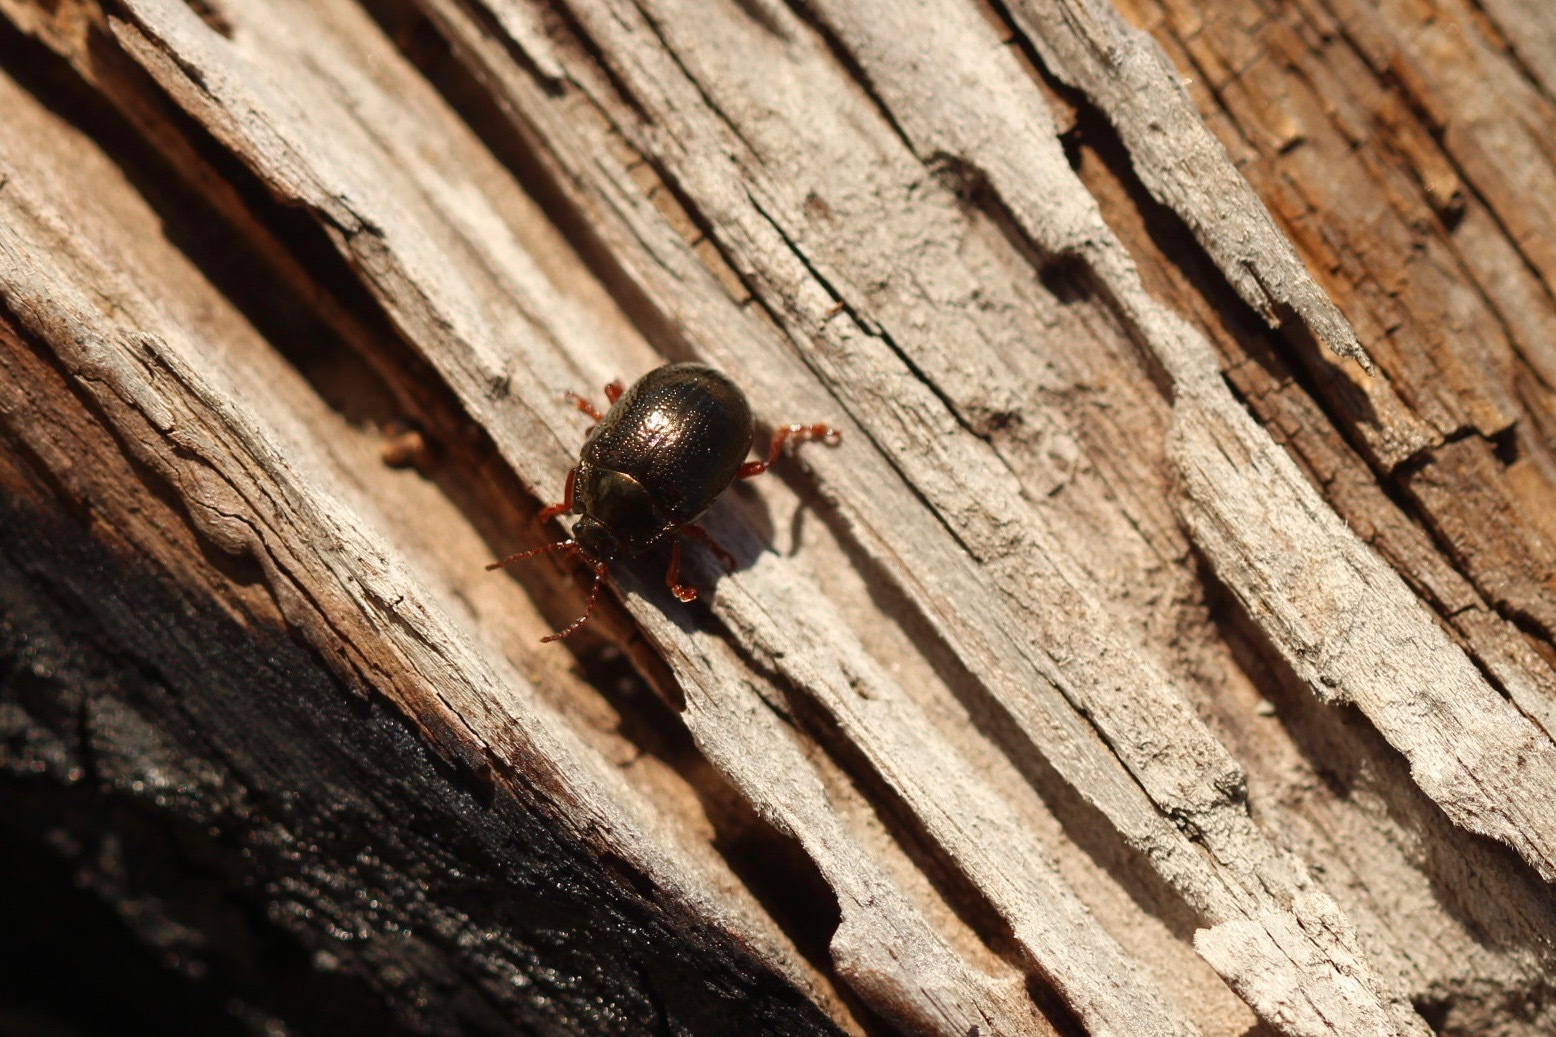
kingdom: Animalia
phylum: Arthropoda
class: Insecta
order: Coleoptera
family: Chrysomelidae
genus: Chrysolina
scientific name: Chrysolina bankii
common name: Leaf beetle
